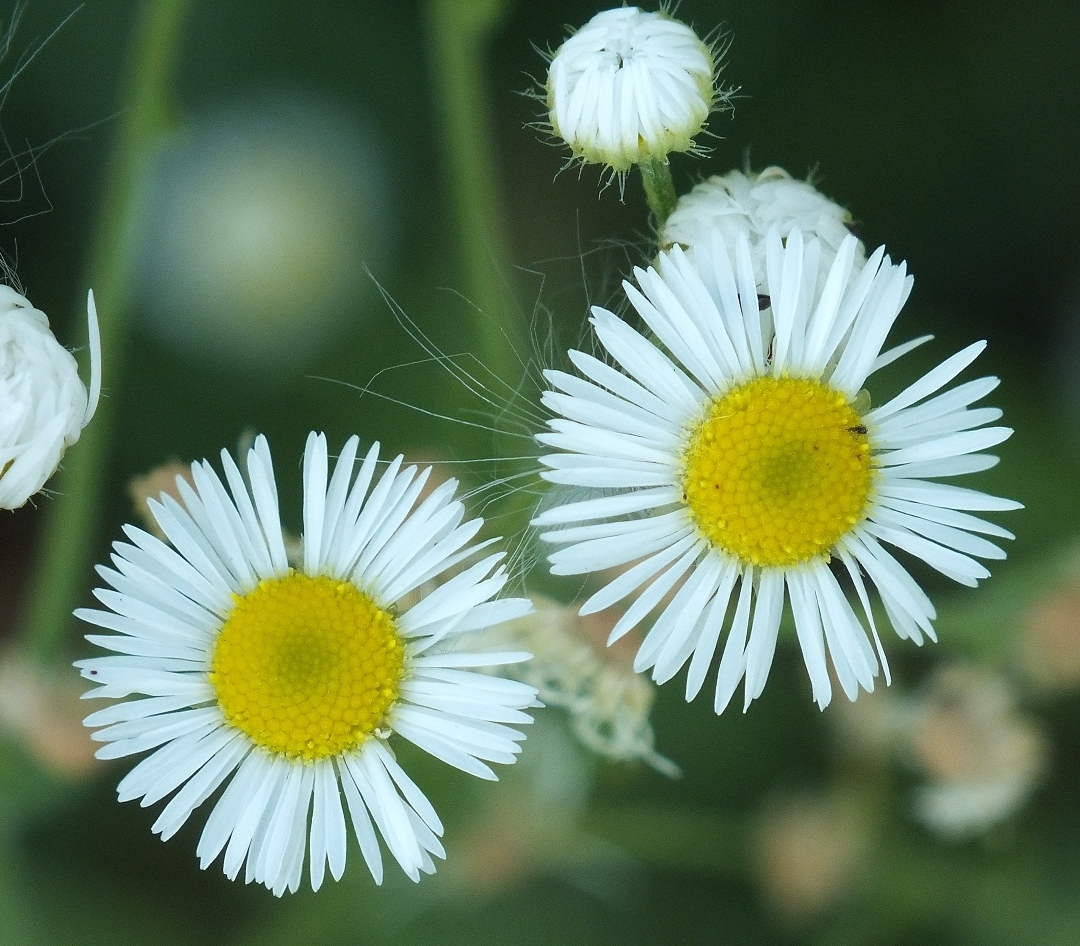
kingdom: Plantae
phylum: Tracheophyta
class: Magnoliopsida
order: Asterales
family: Asteraceae
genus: Erigeron
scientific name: Erigeron annuus
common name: Tall fleabane
